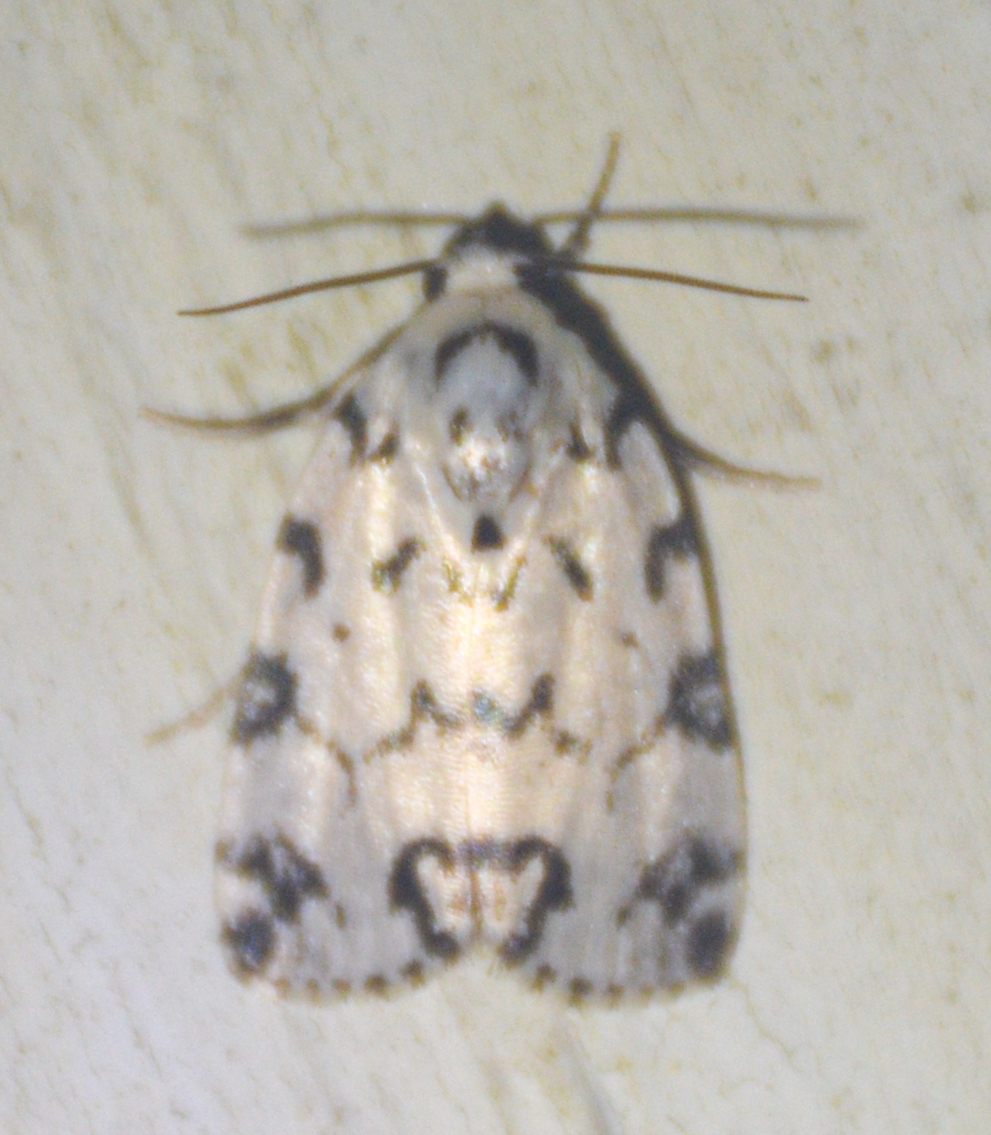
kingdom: Animalia
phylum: Arthropoda
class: Insecta
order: Lepidoptera
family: Noctuidae
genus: Polygrammate
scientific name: Polygrammate hebraeicum
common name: Hebrew moth
